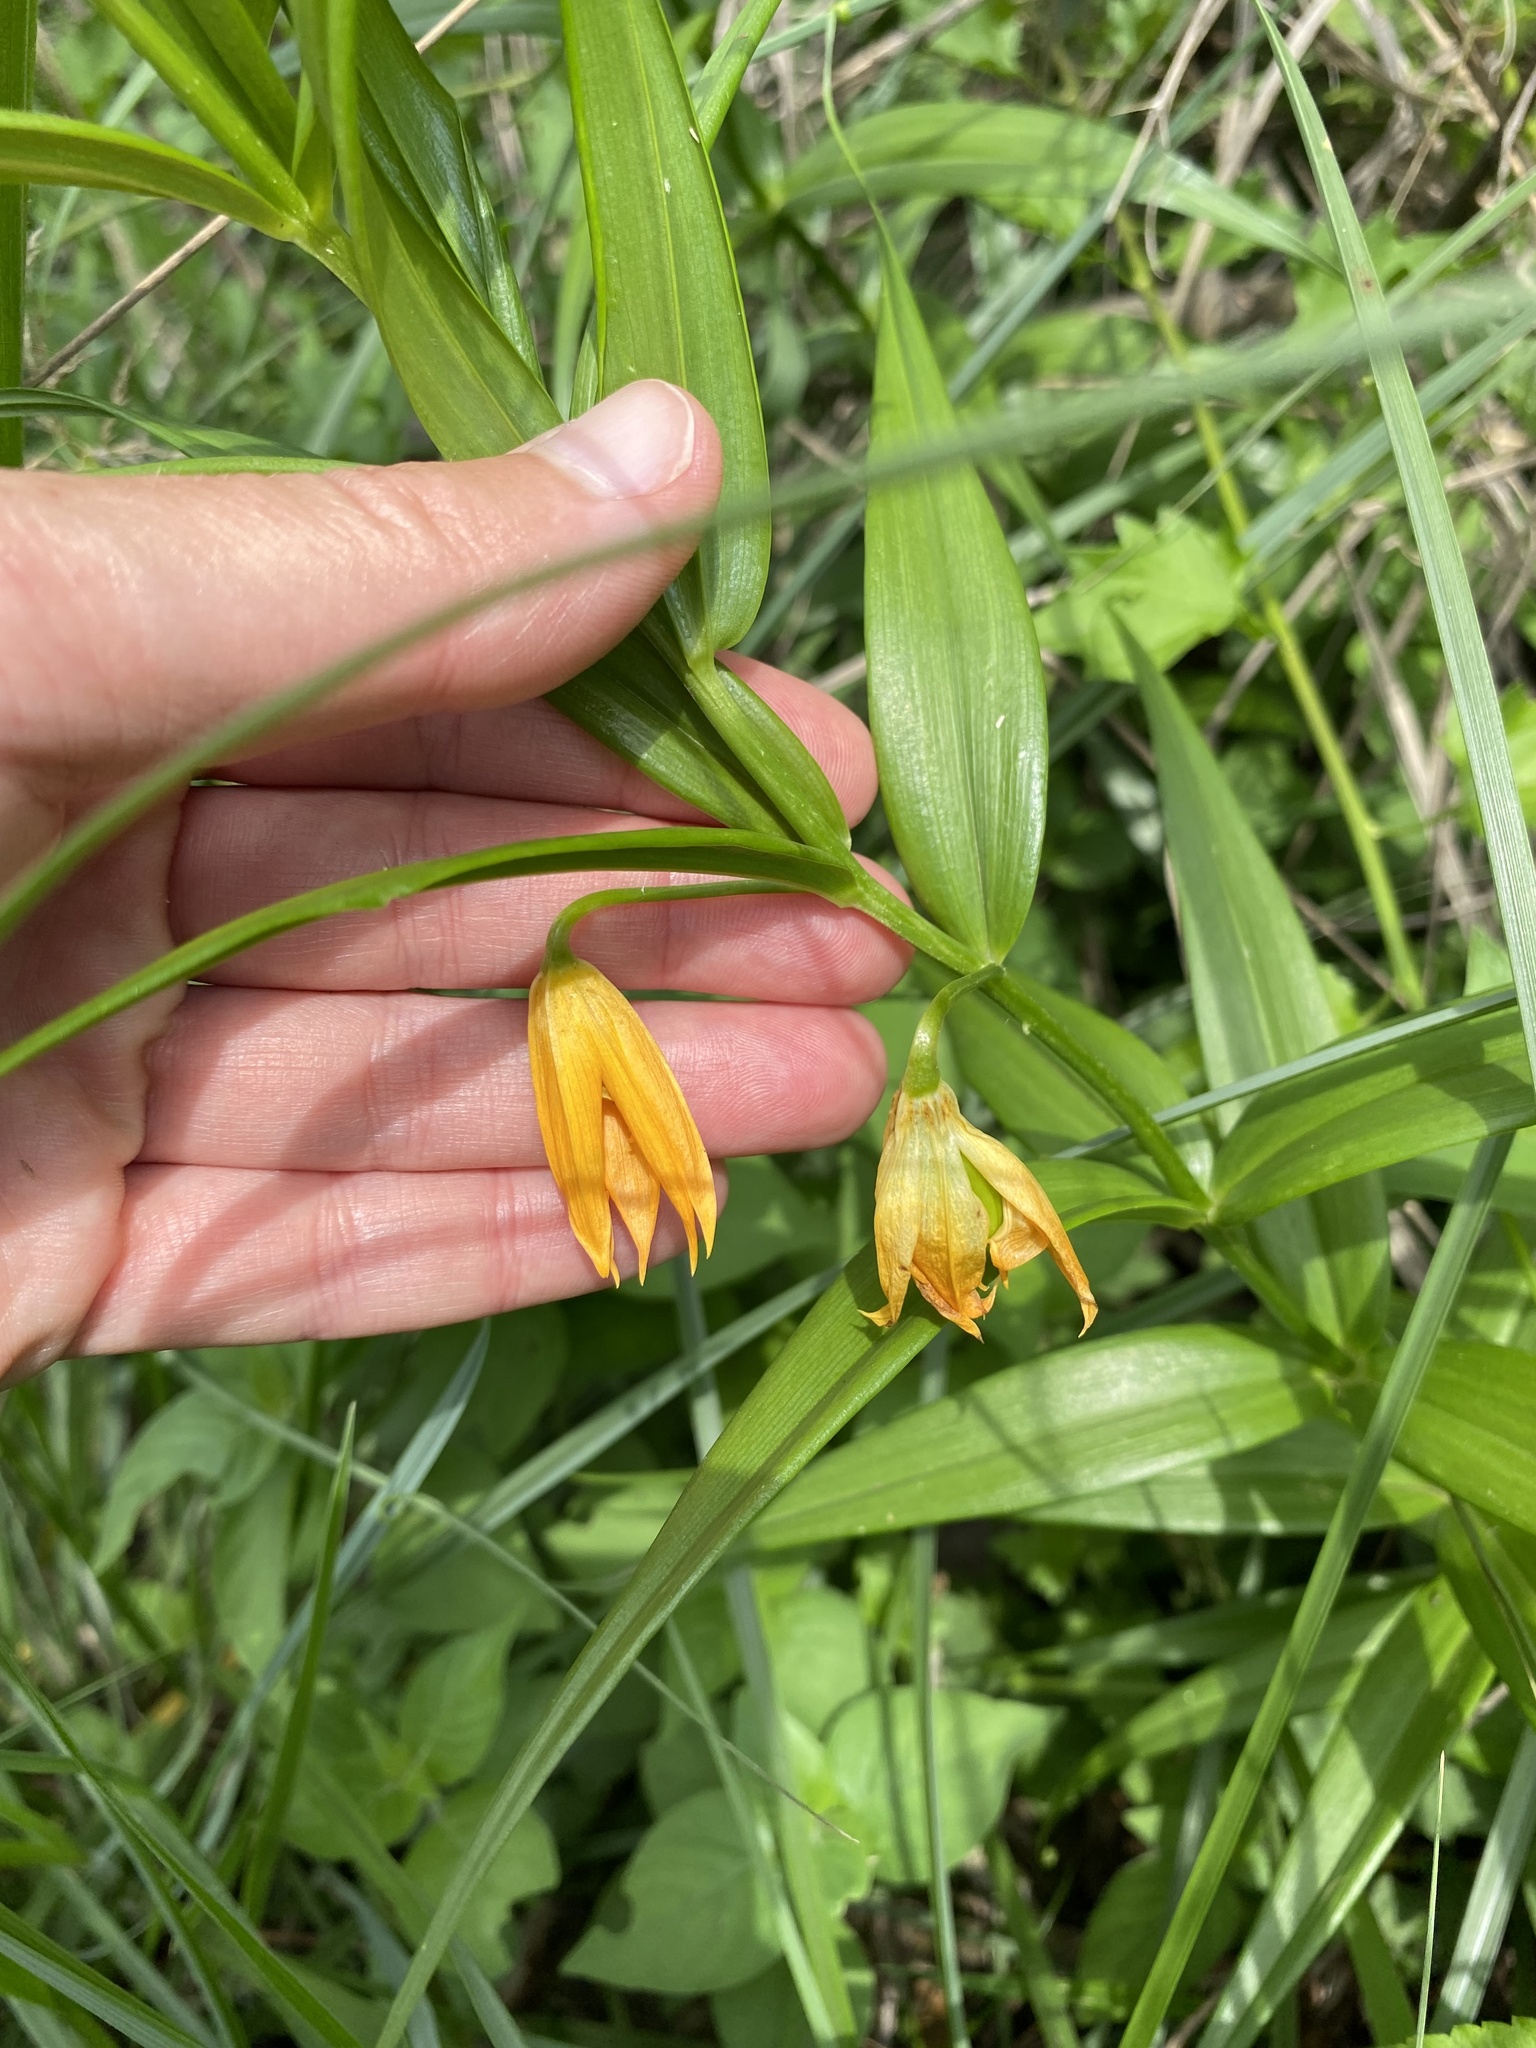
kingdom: Plantae
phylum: Tracheophyta
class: Liliopsida
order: Liliales
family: Colchicaceae
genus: Gloriosa
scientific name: Gloriosa modesta
